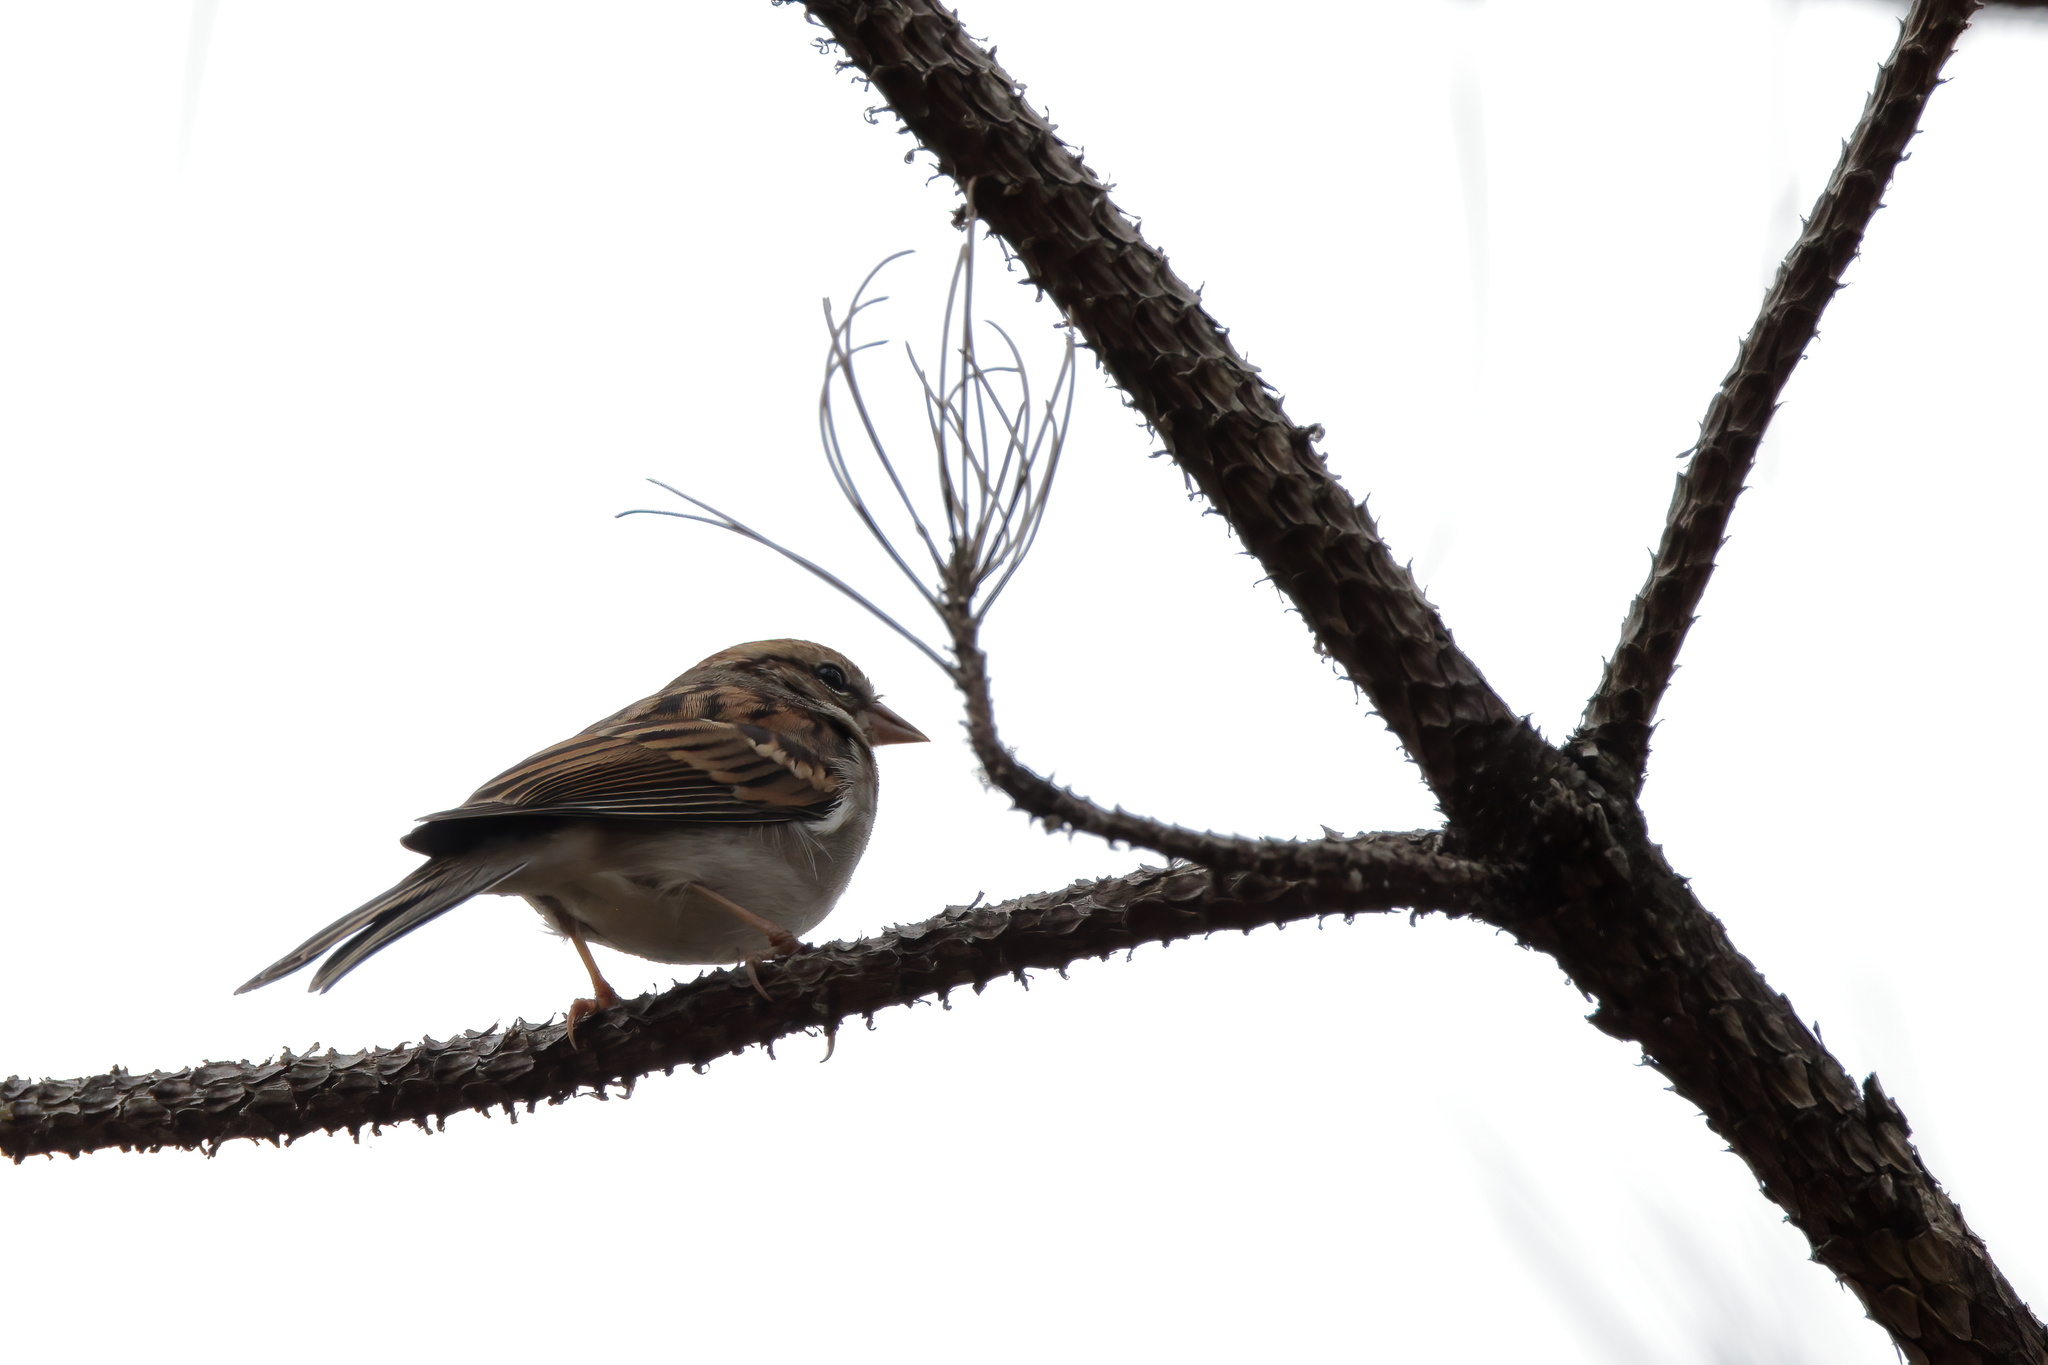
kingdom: Animalia
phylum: Chordata
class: Aves
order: Passeriformes
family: Passerellidae
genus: Spizella
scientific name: Spizella passerina
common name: Chipping sparrow
